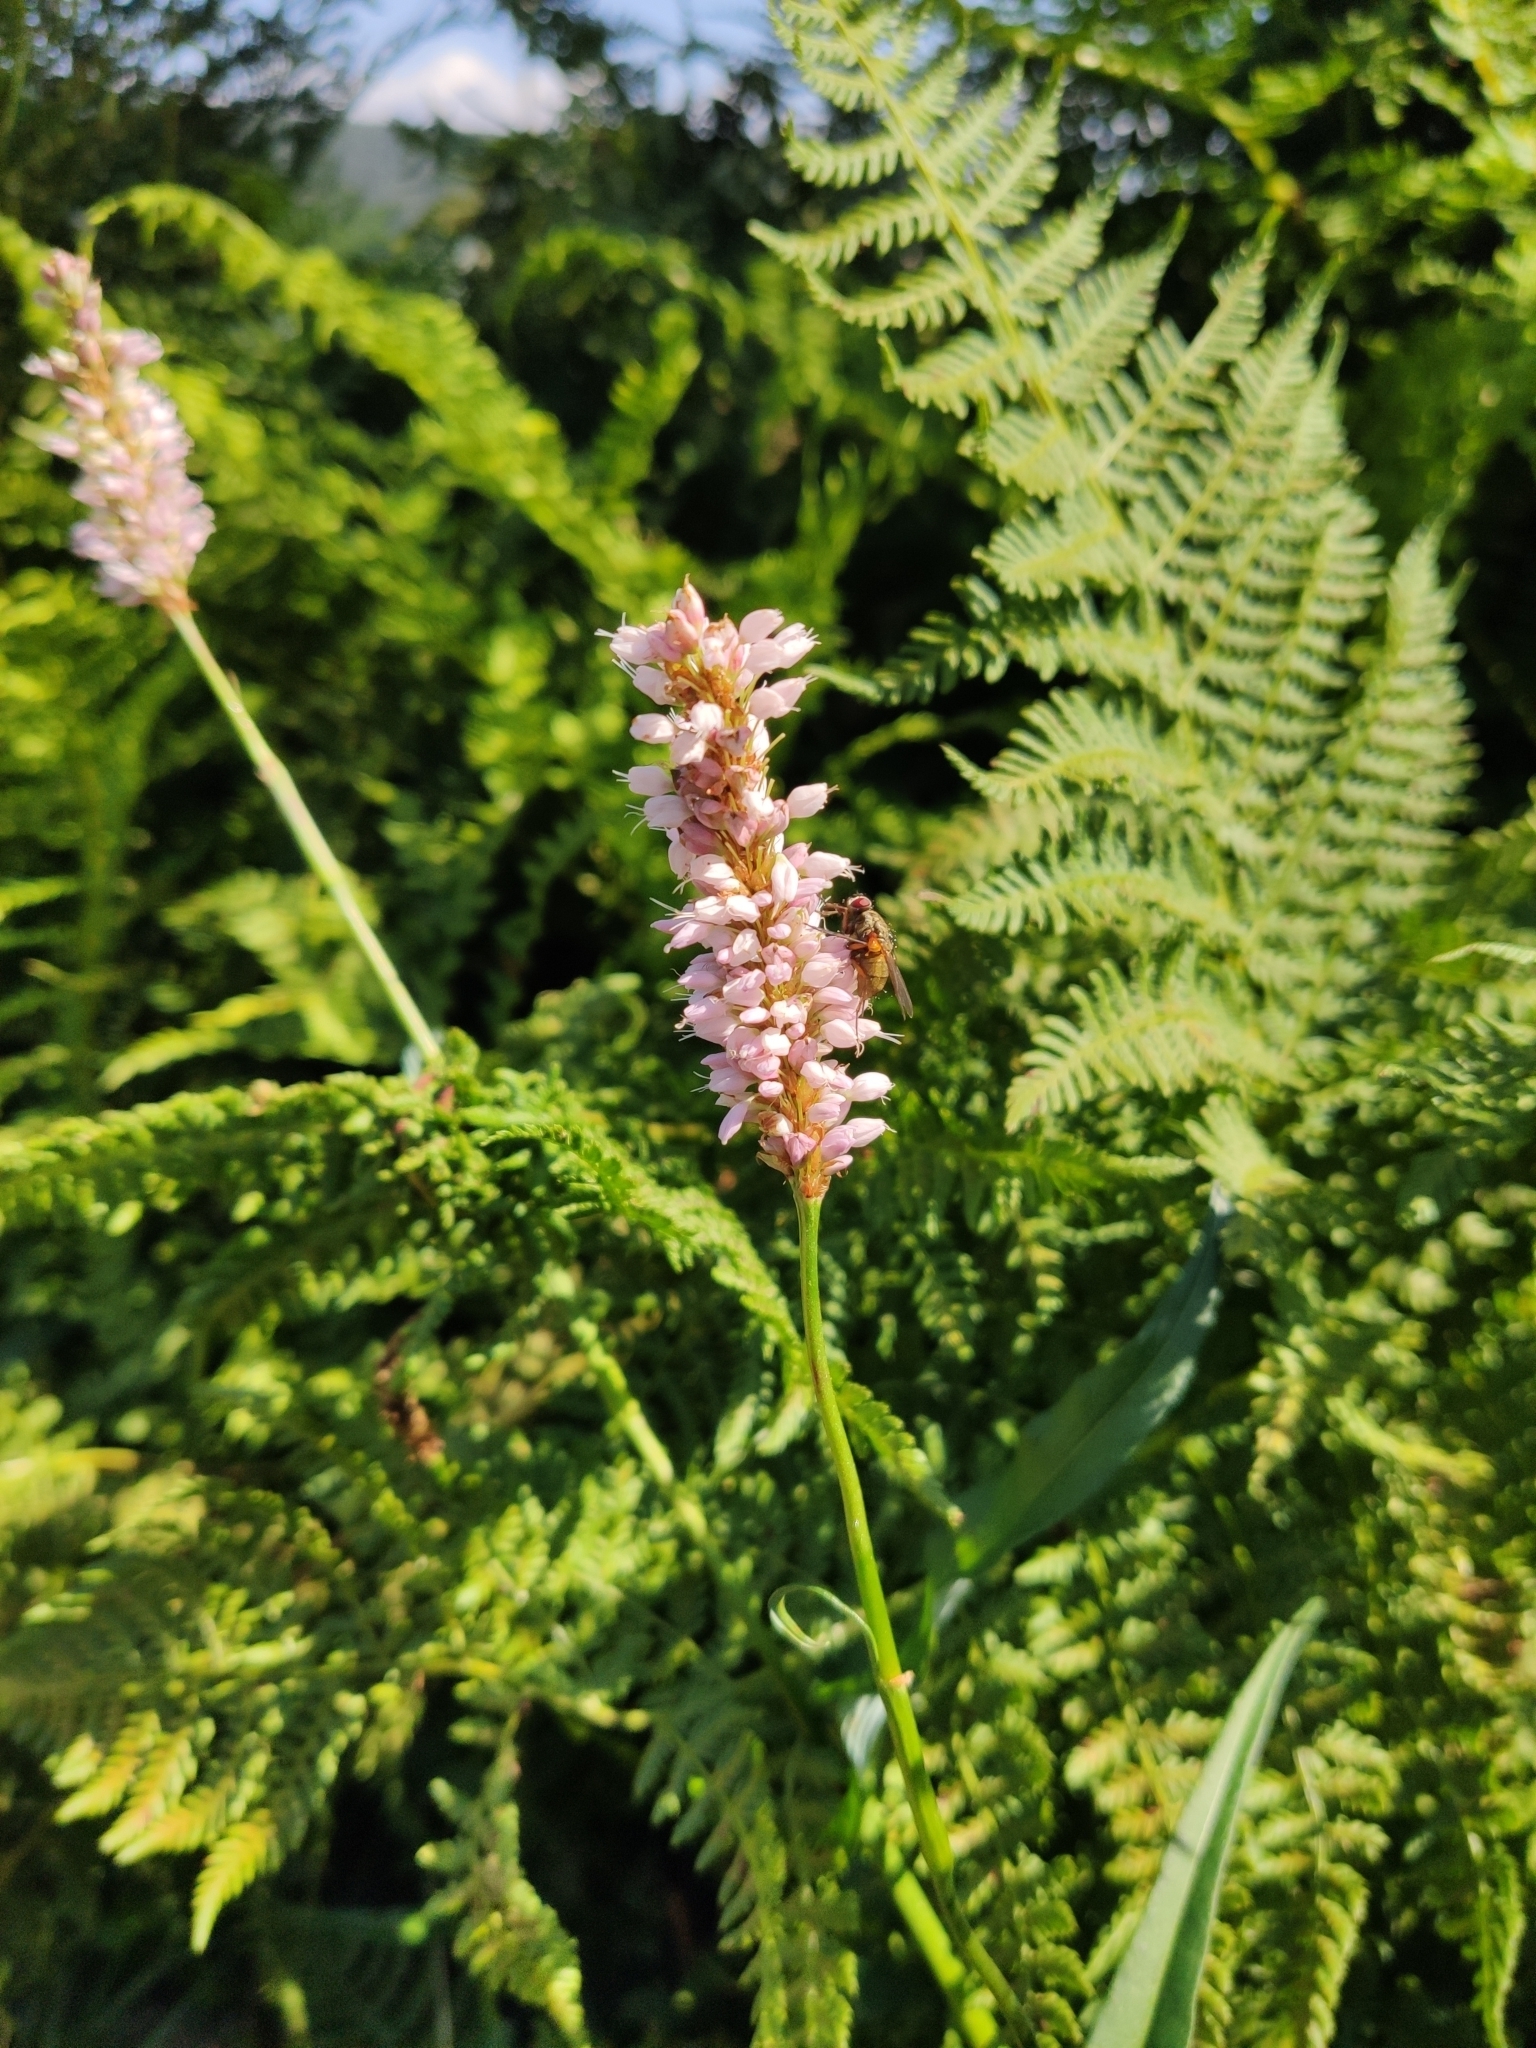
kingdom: Plantae
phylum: Tracheophyta
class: Magnoliopsida
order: Caryophyllales
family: Polygonaceae
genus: Bistorta
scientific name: Bistorta officinalis
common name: Common bistort
